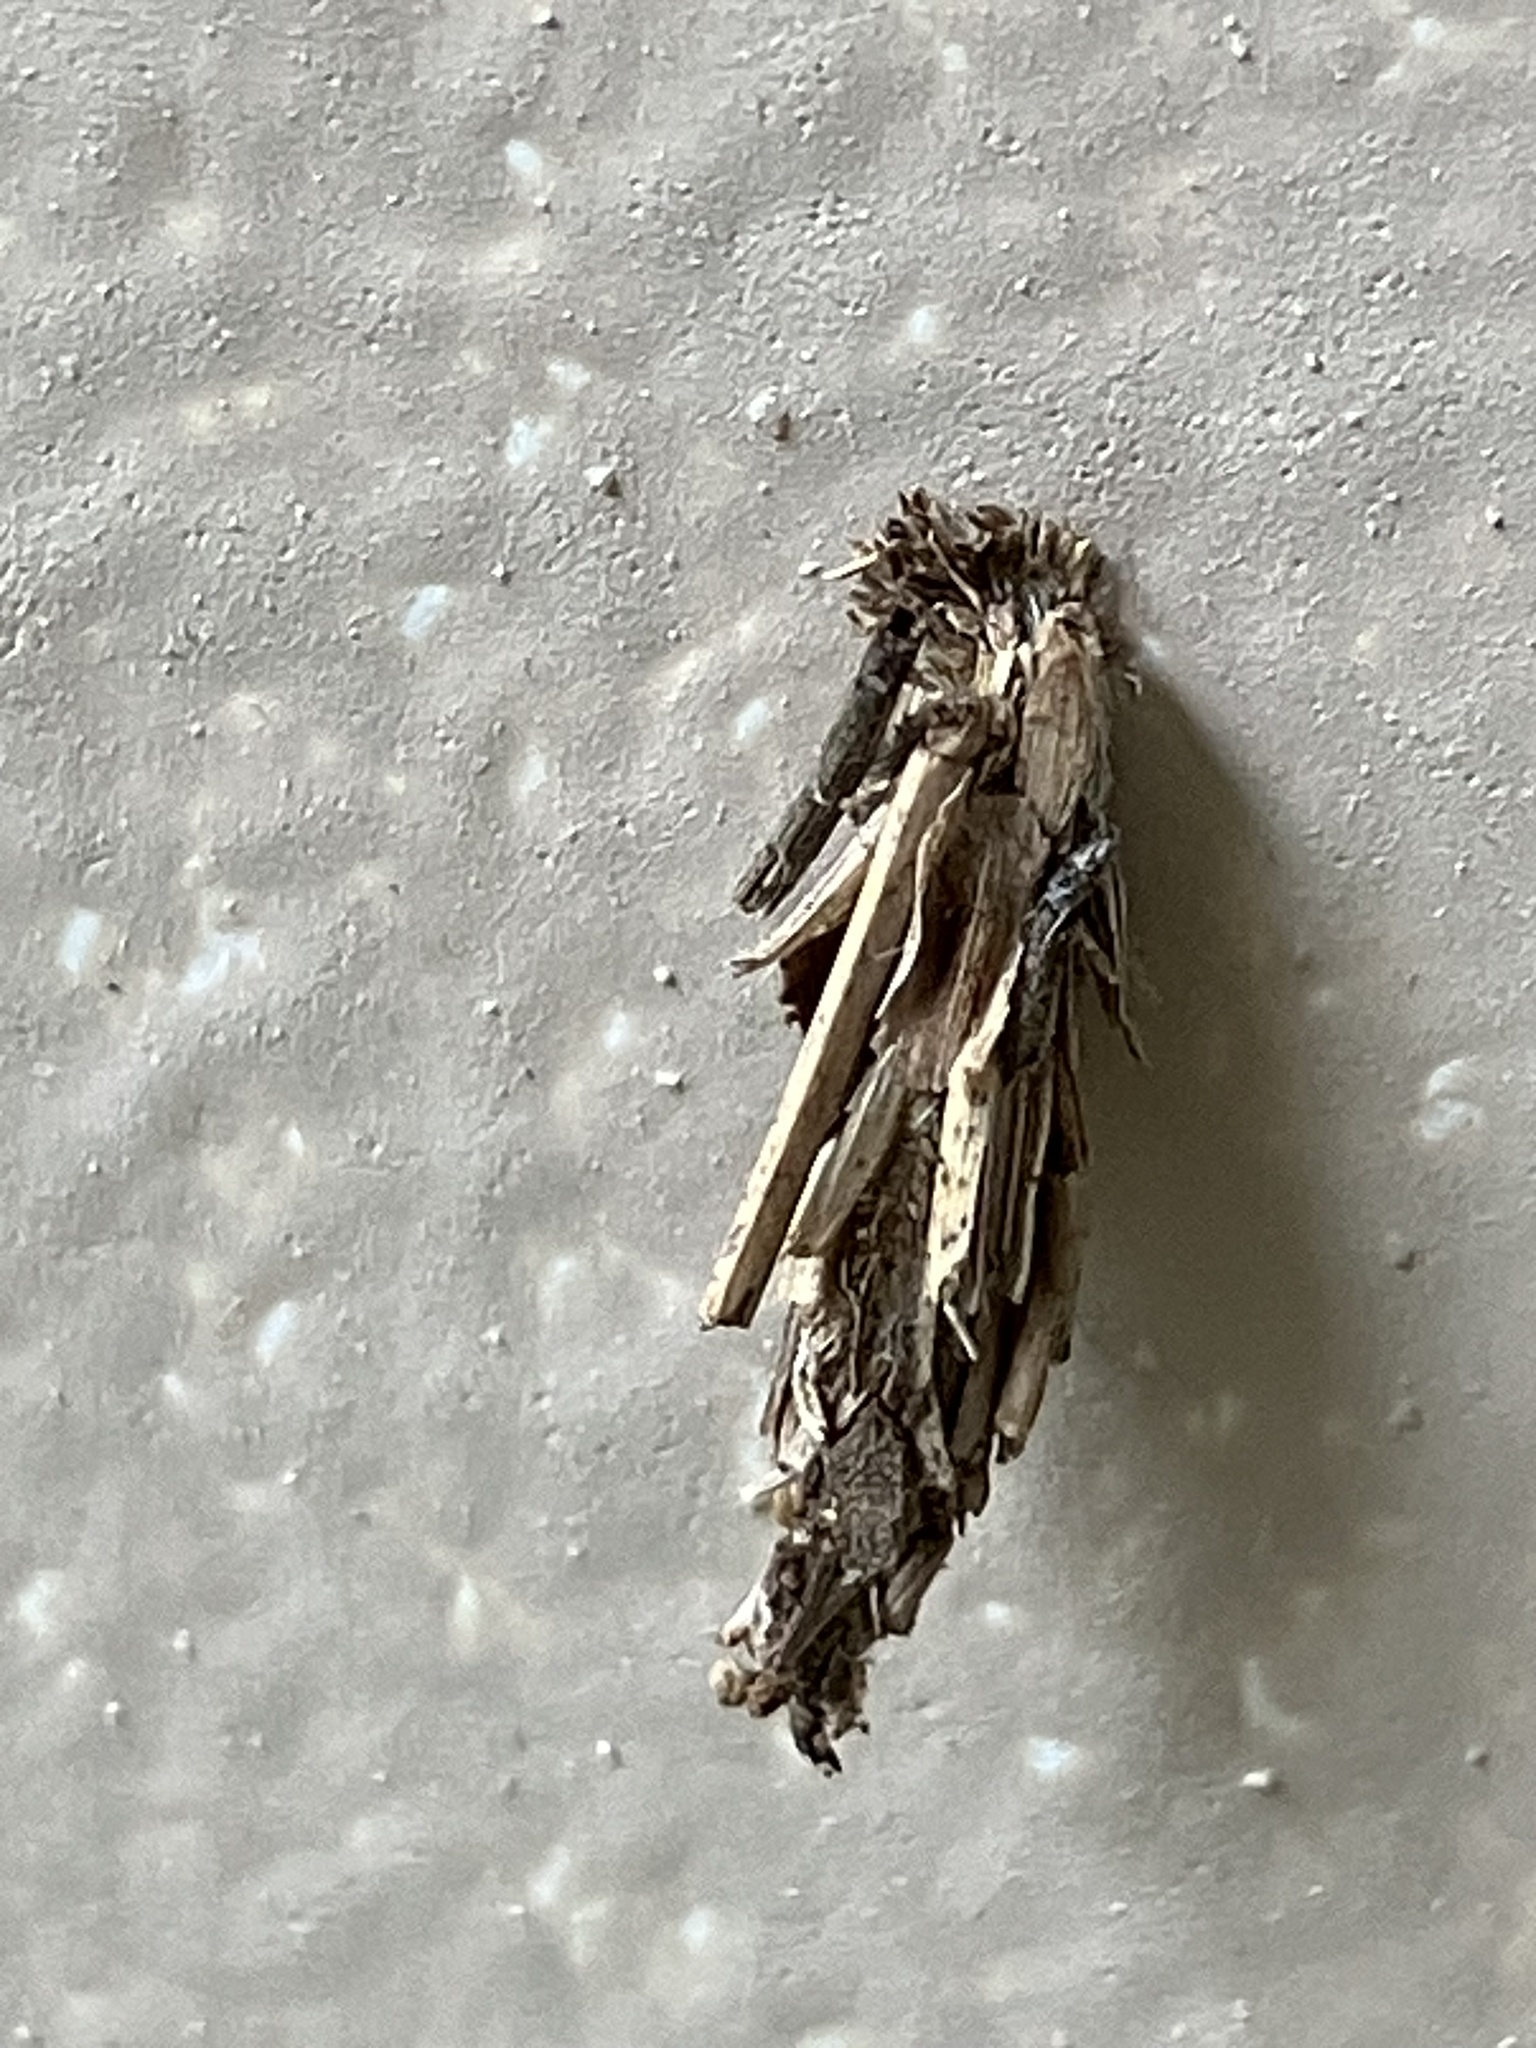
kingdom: Animalia
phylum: Arthropoda
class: Insecta
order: Lepidoptera
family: Psychidae
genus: Psyche
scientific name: Psyche casta
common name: Common sweep
